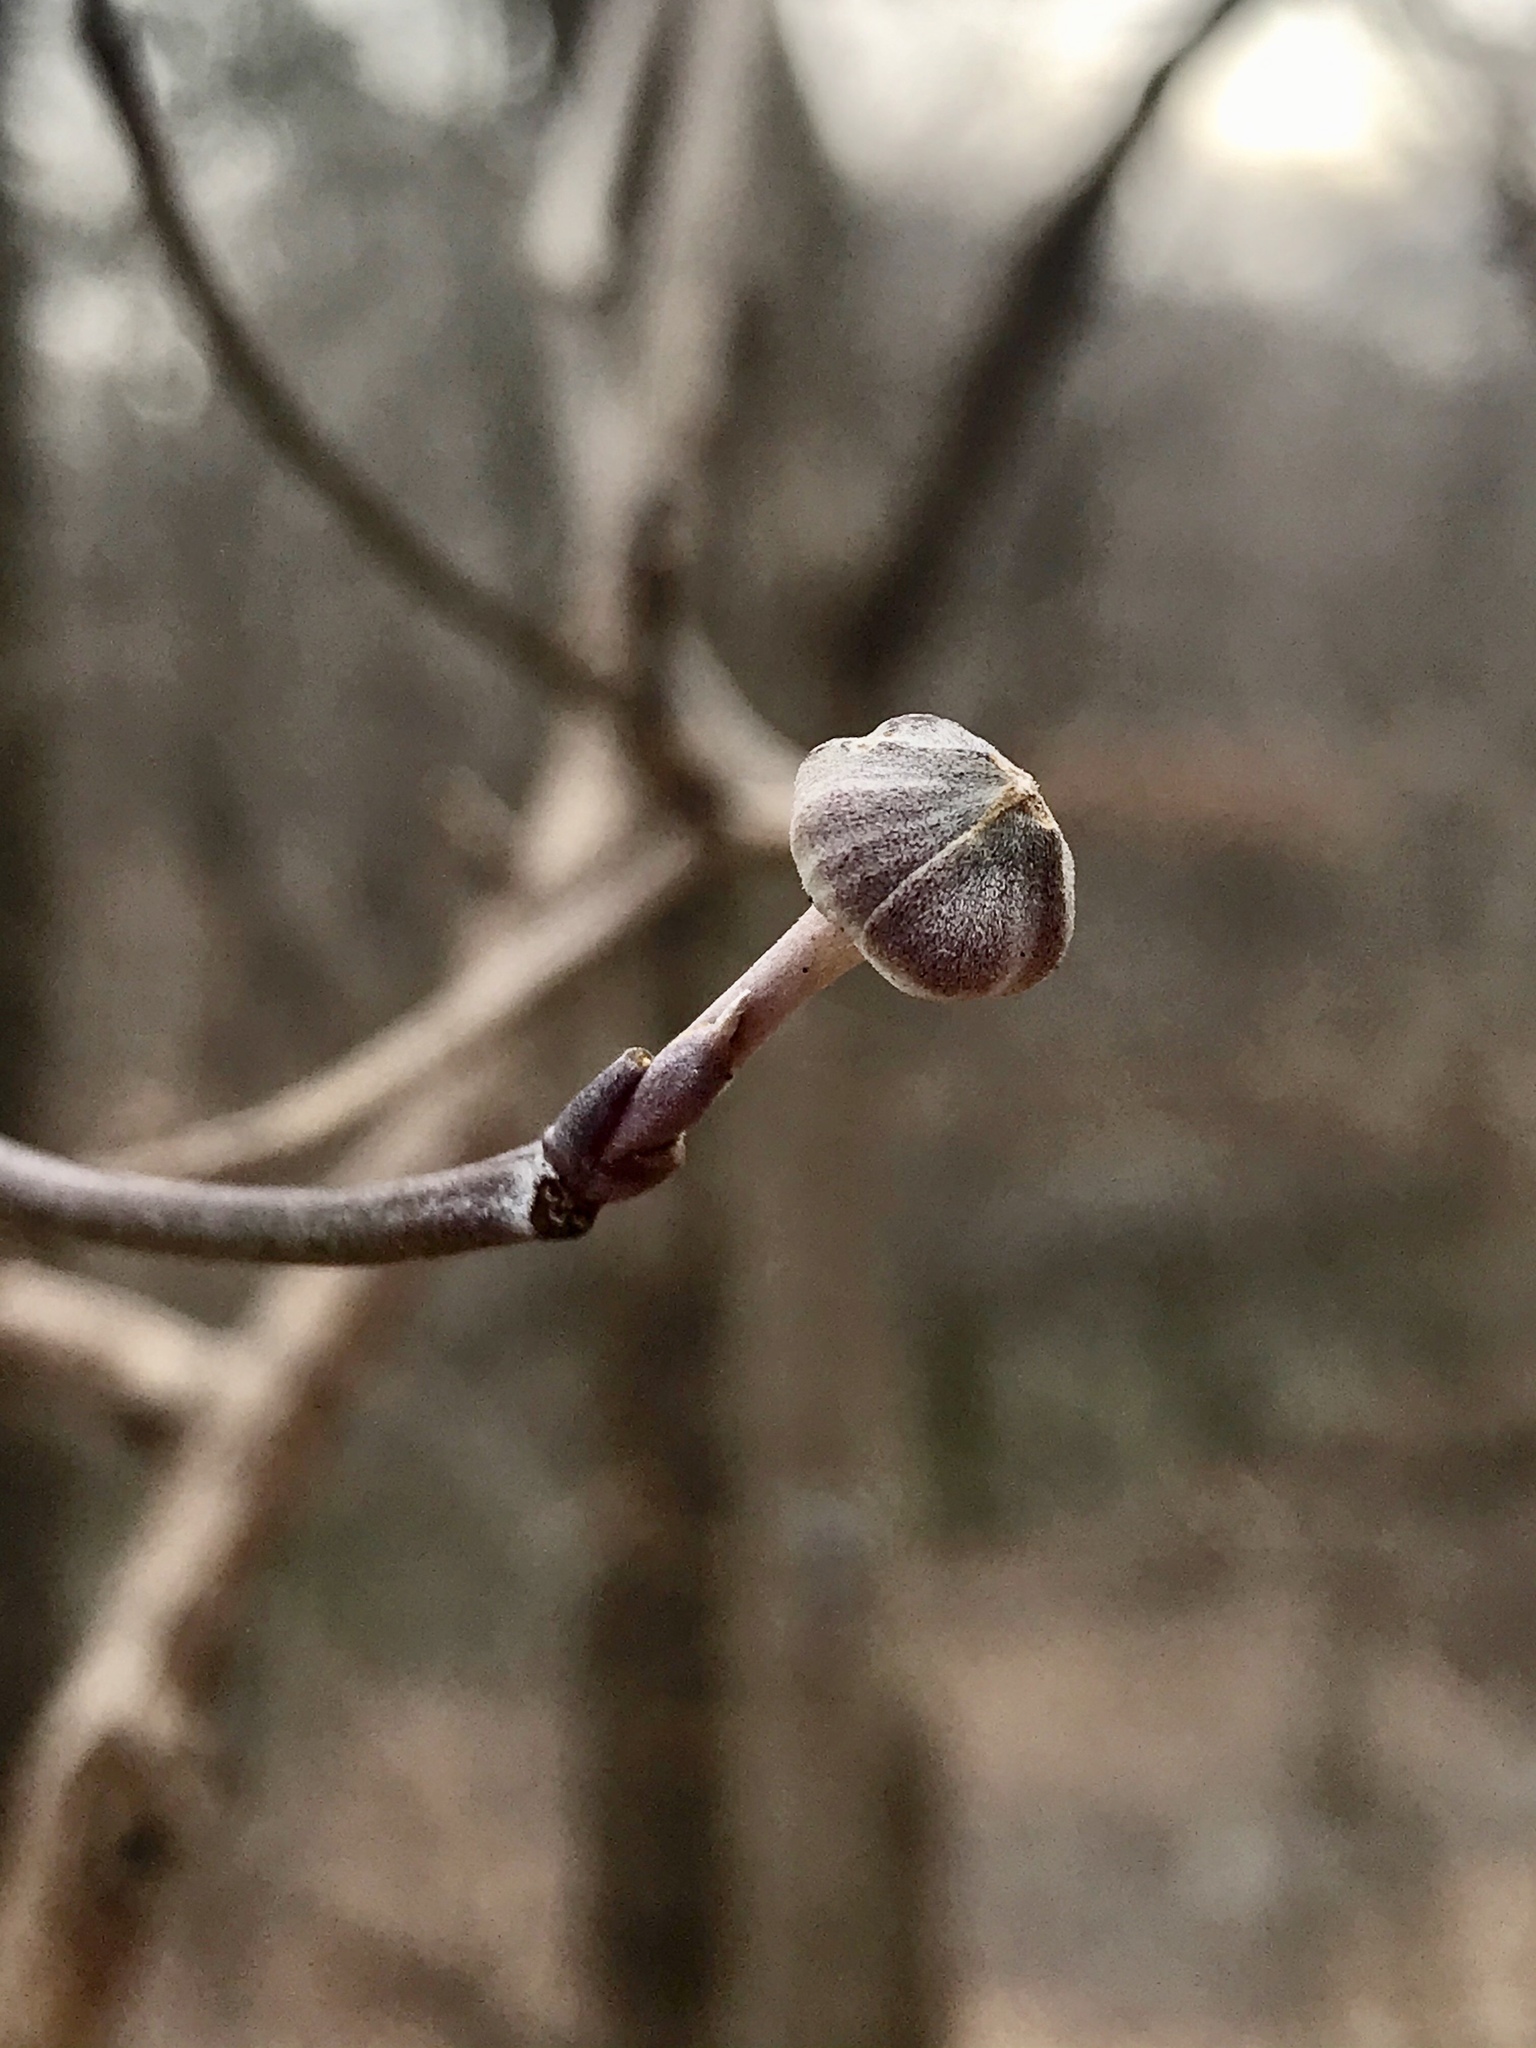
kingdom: Plantae
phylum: Tracheophyta
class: Magnoliopsida
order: Cornales
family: Cornaceae
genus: Cornus
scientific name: Cornus florida
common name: Flowering dogwood
